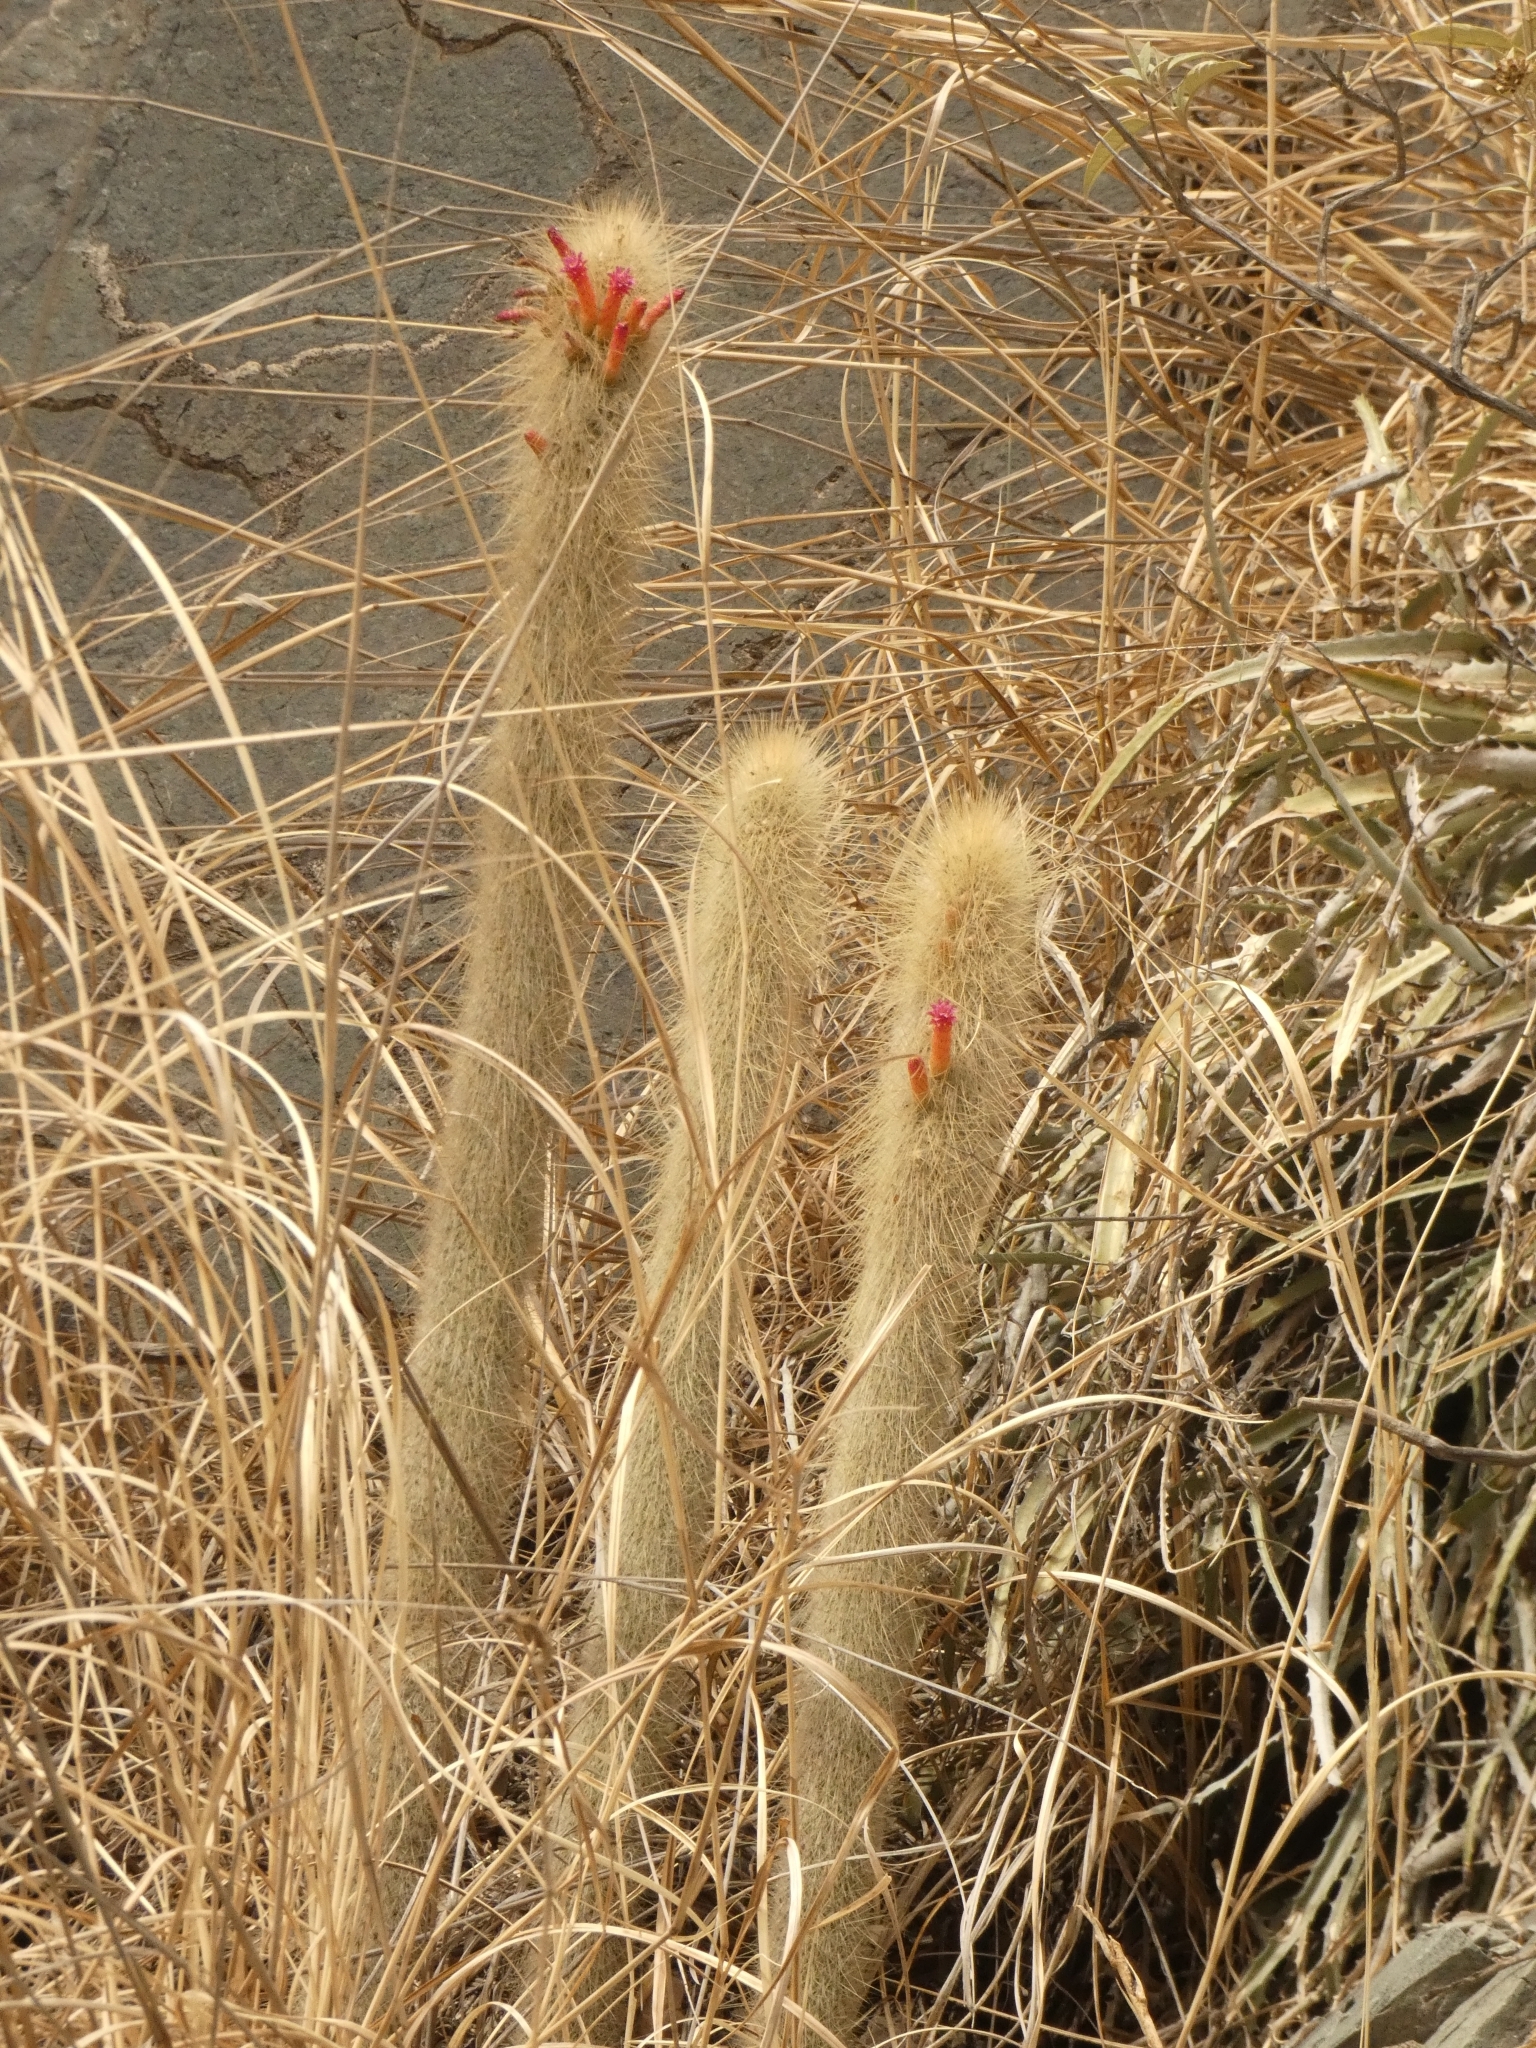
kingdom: Plantae
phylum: Tracheophyta
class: Magnoliopsida
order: Caryophyllales
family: Cactaceae
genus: Cleistocactus
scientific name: Cleistocactus hyalacanthus
